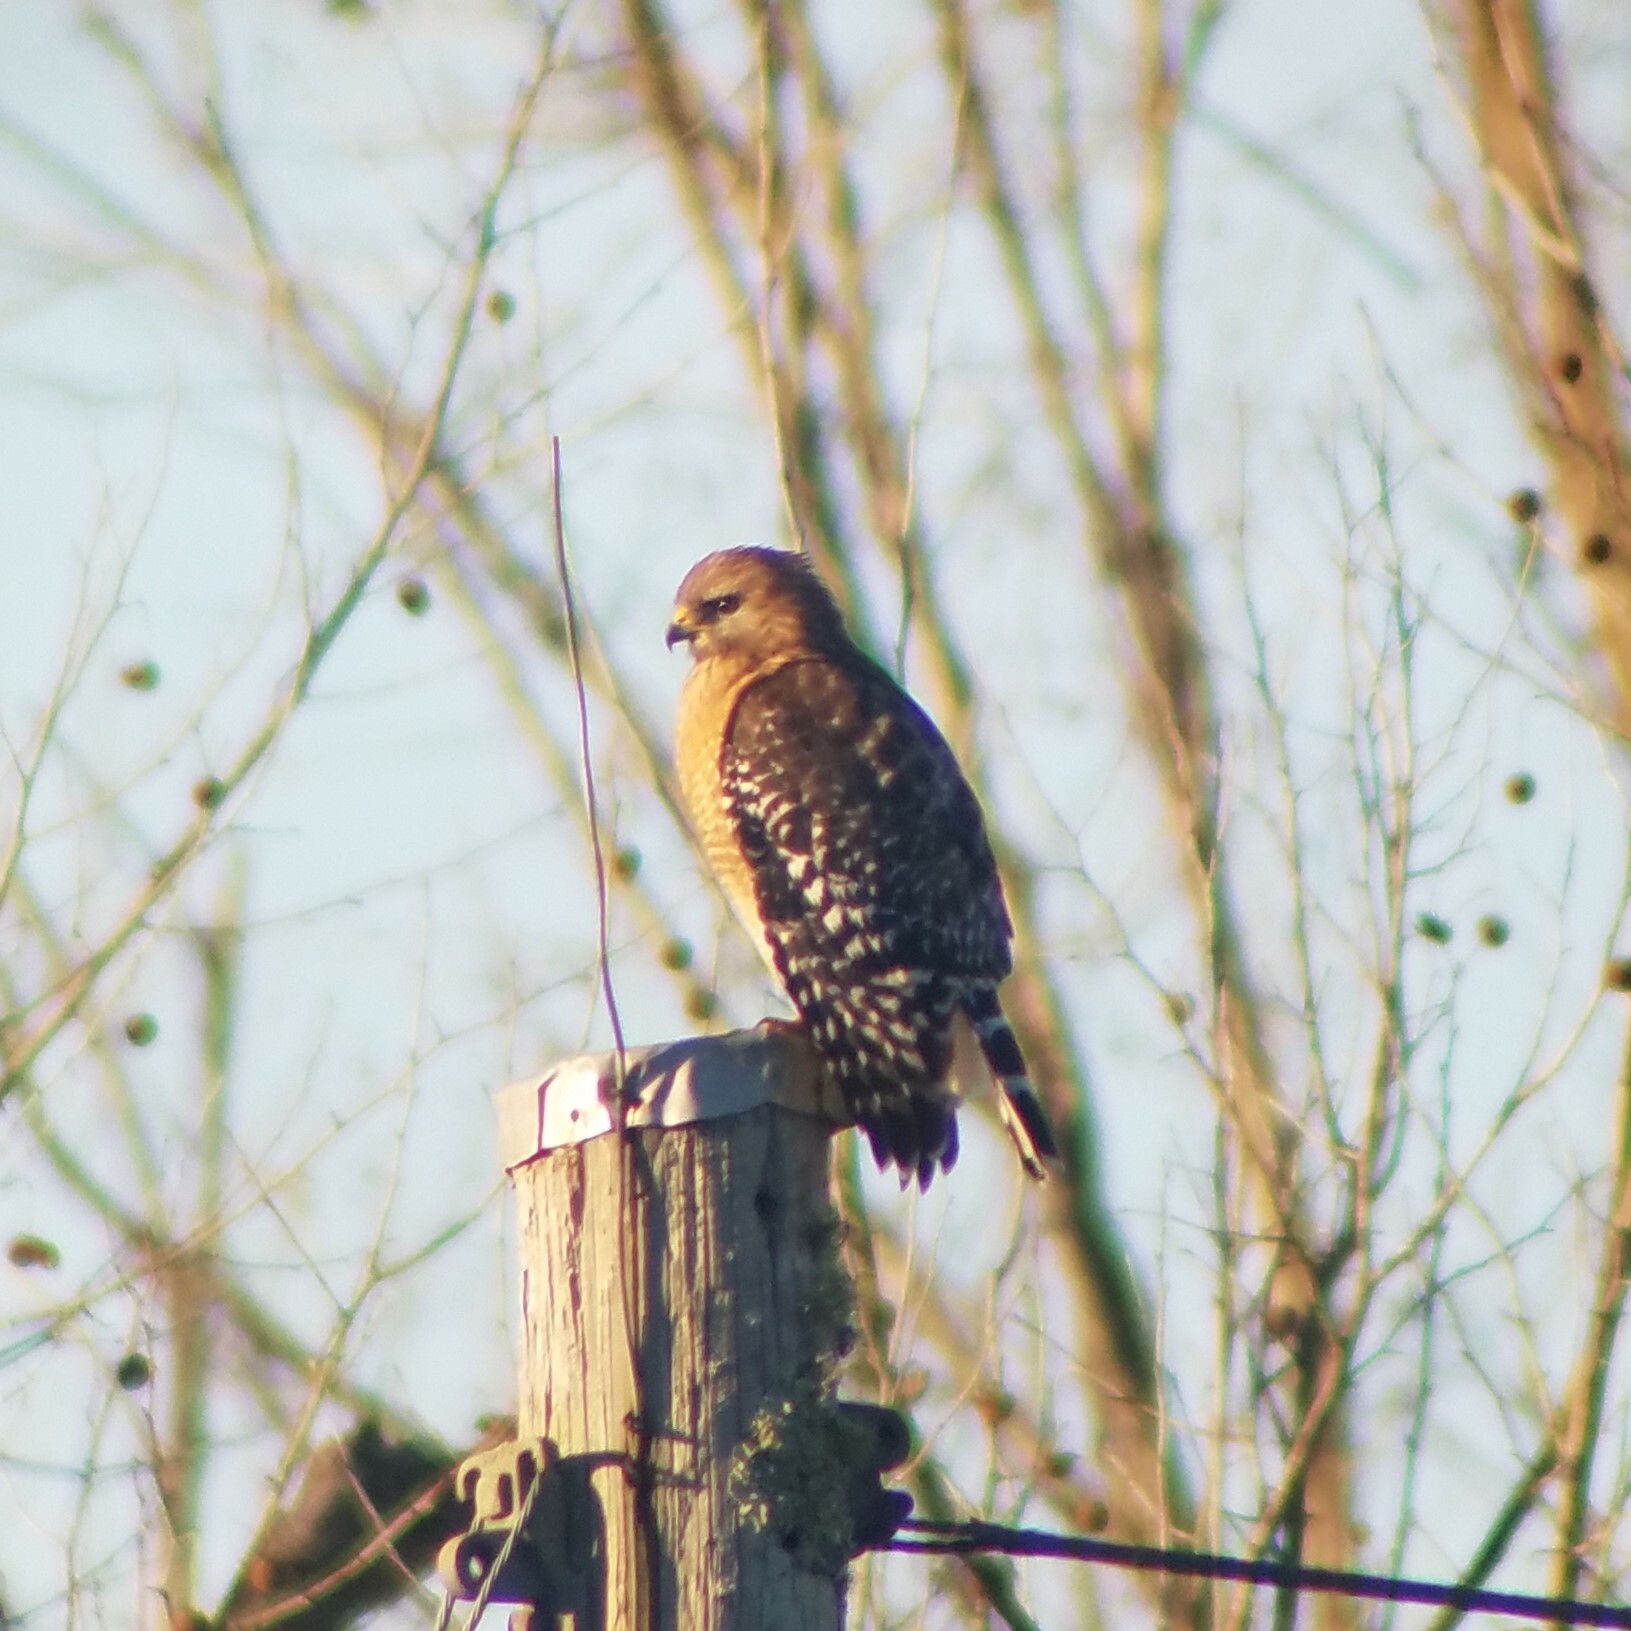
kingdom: Animalia
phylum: Chordata
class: Aves
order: Accipitriformes
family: Accipitridae
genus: Buteo
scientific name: Buteo lineatus
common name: Red-shouldered hawk
